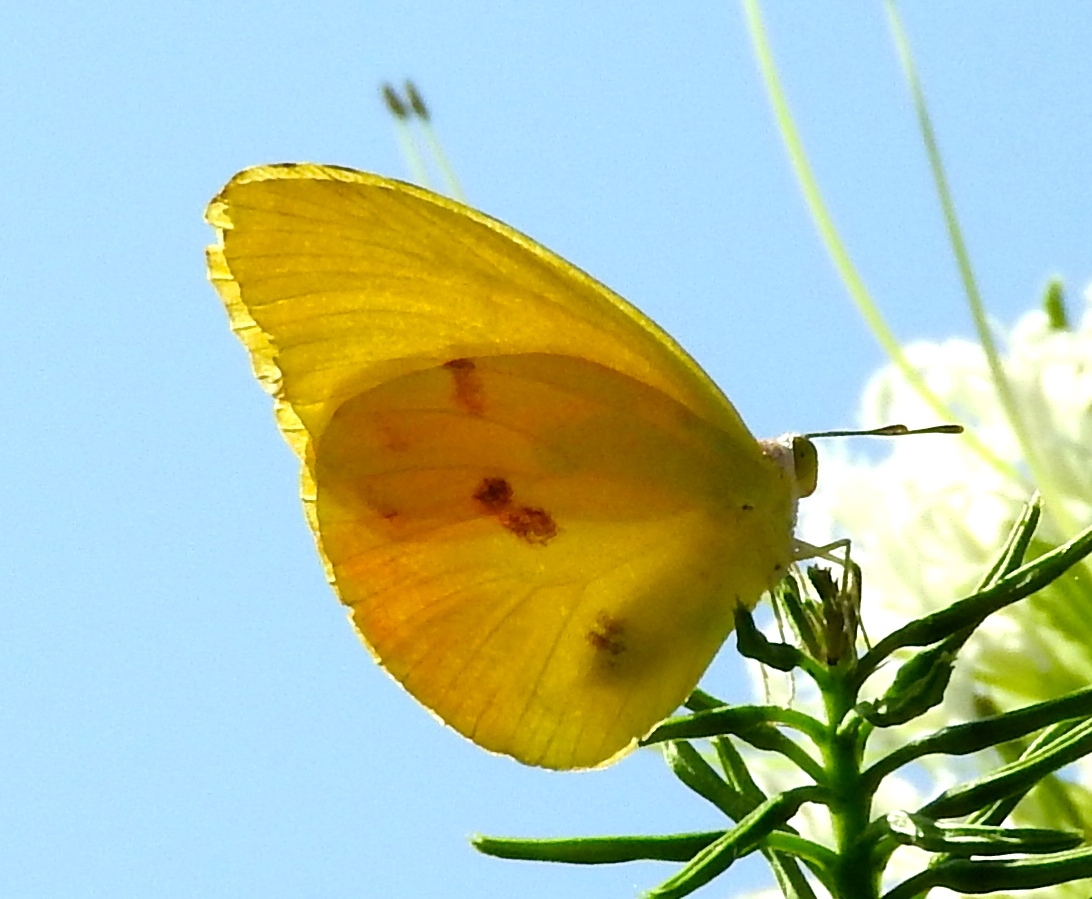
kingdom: Animalia
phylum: Arthropoda
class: Insecta
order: Lepidoptera
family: Pieridae
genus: Prestonia
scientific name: Prestonia clarki
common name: West-mexican sulphur
